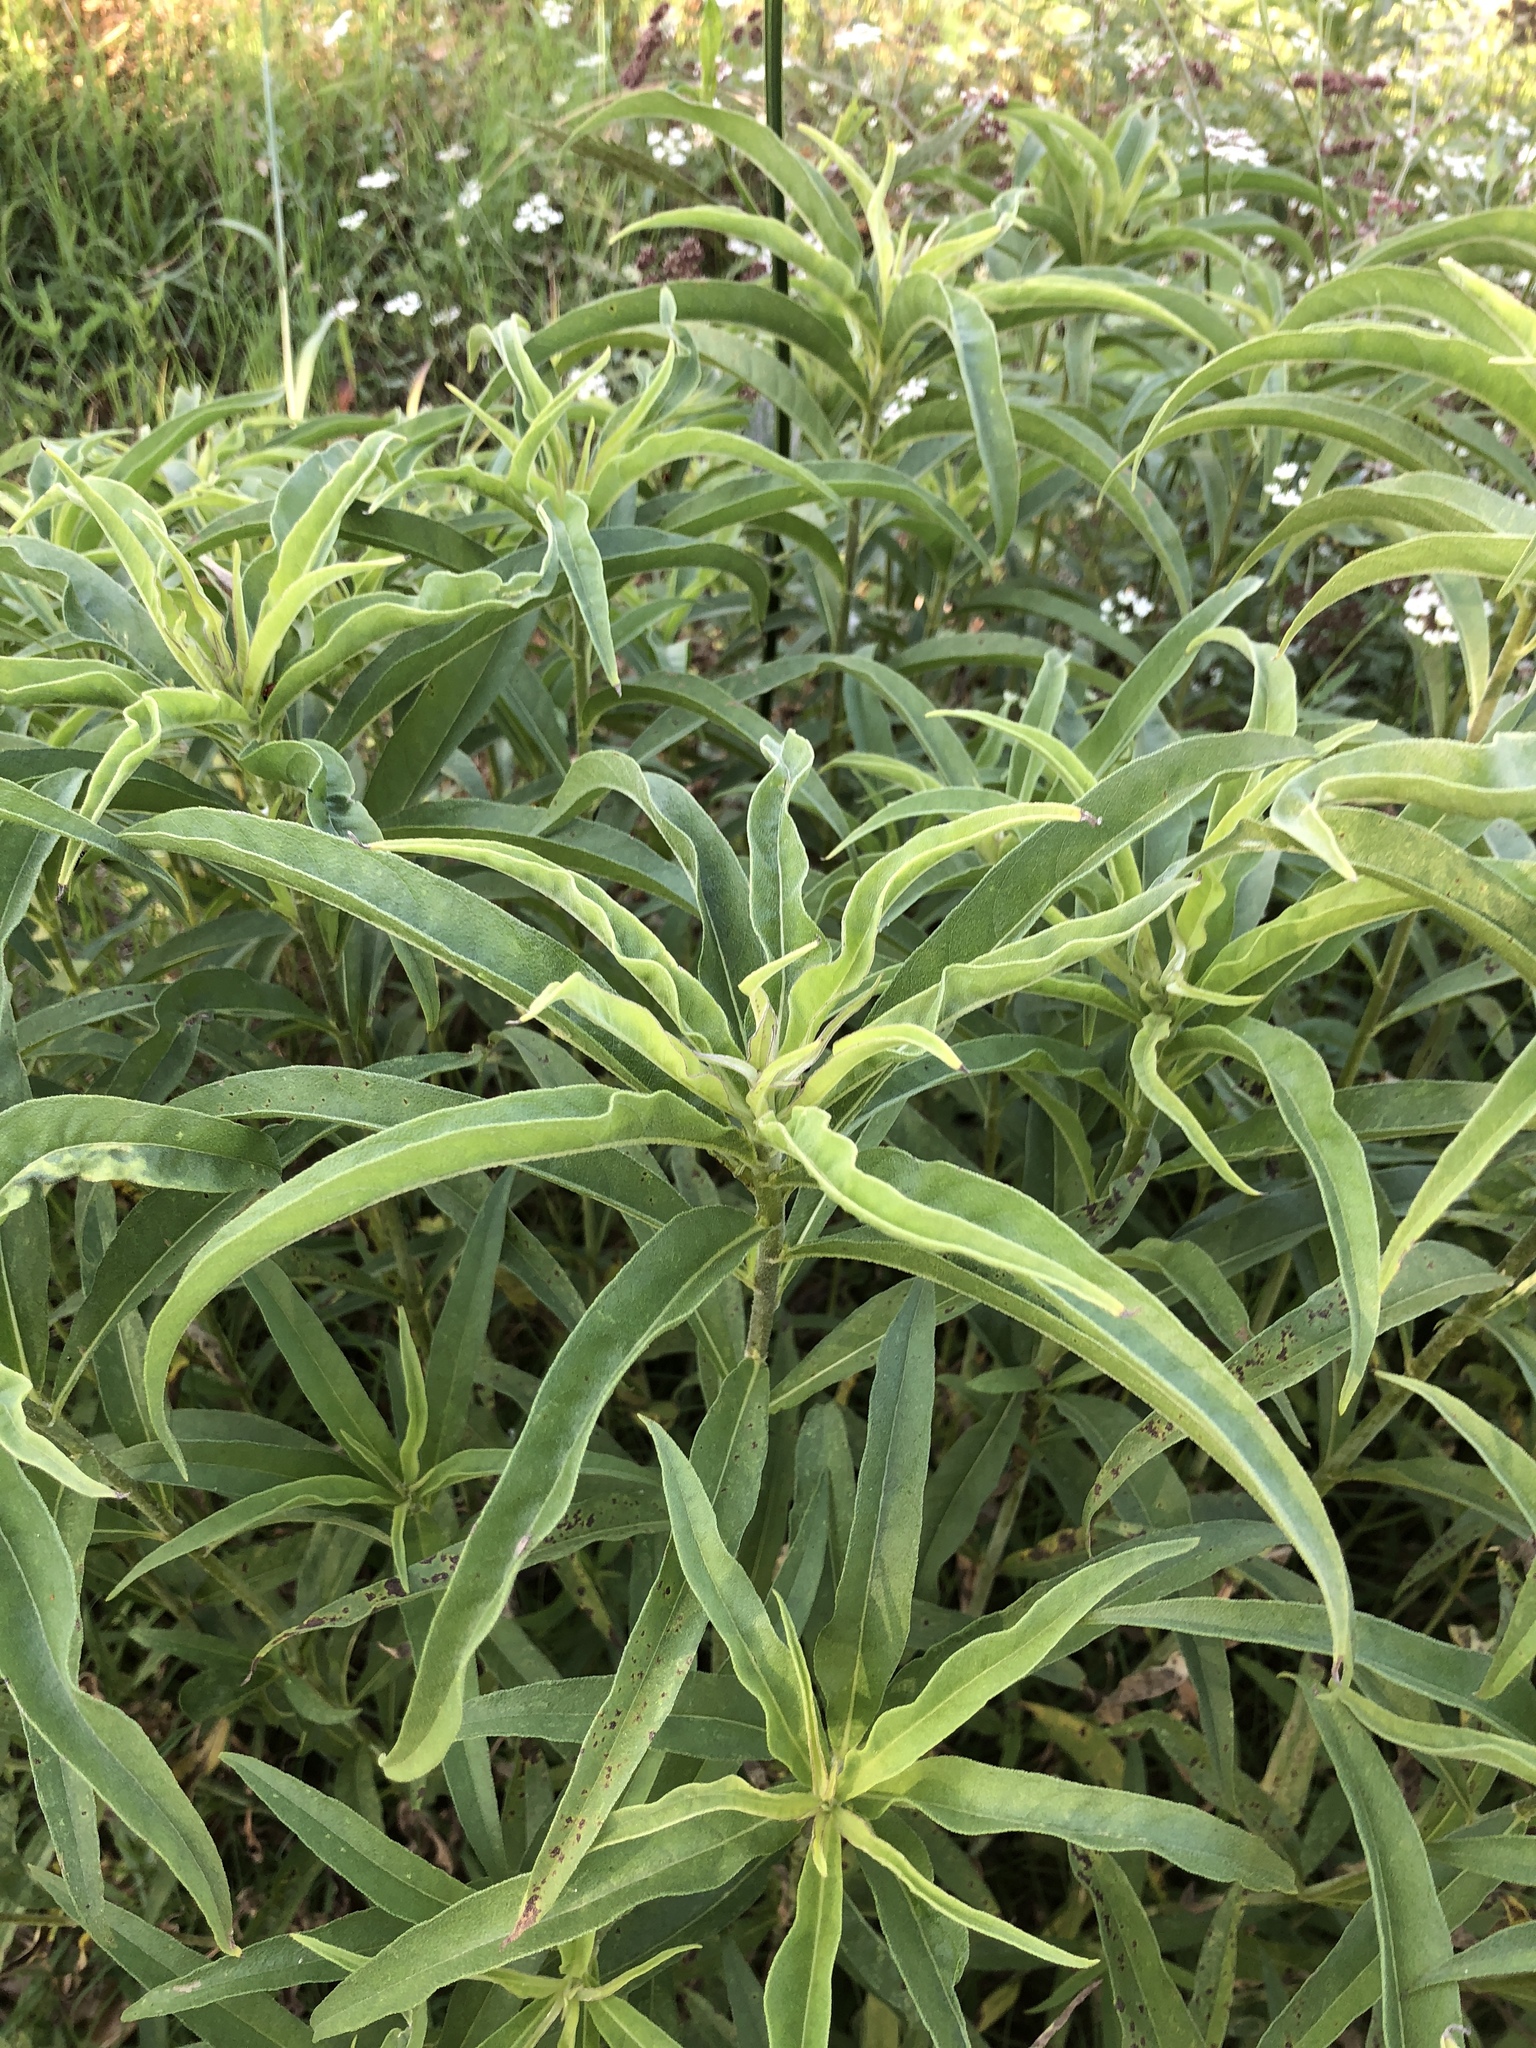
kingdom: Plantae
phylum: Tracheophyta
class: Magnoliopsida
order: Asterales
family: Asteraceae
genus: Helianthus
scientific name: Helianthus maximiliani
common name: Maximilian's sunflower
